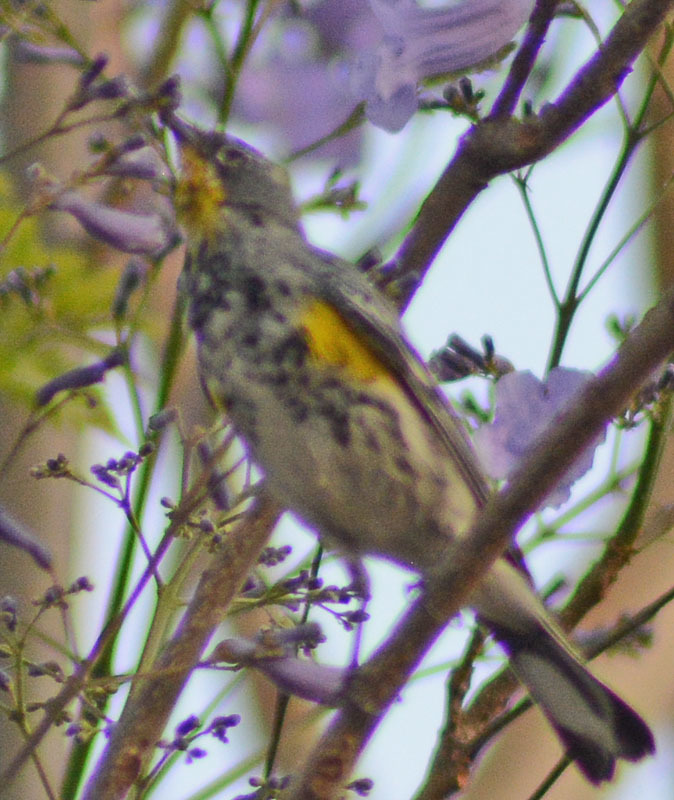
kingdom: Animalia
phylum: Chordata
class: Aves
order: Passeriformes
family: Parulidae
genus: Setophaga
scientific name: Setophaga auduboni
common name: Audubon's warbler
